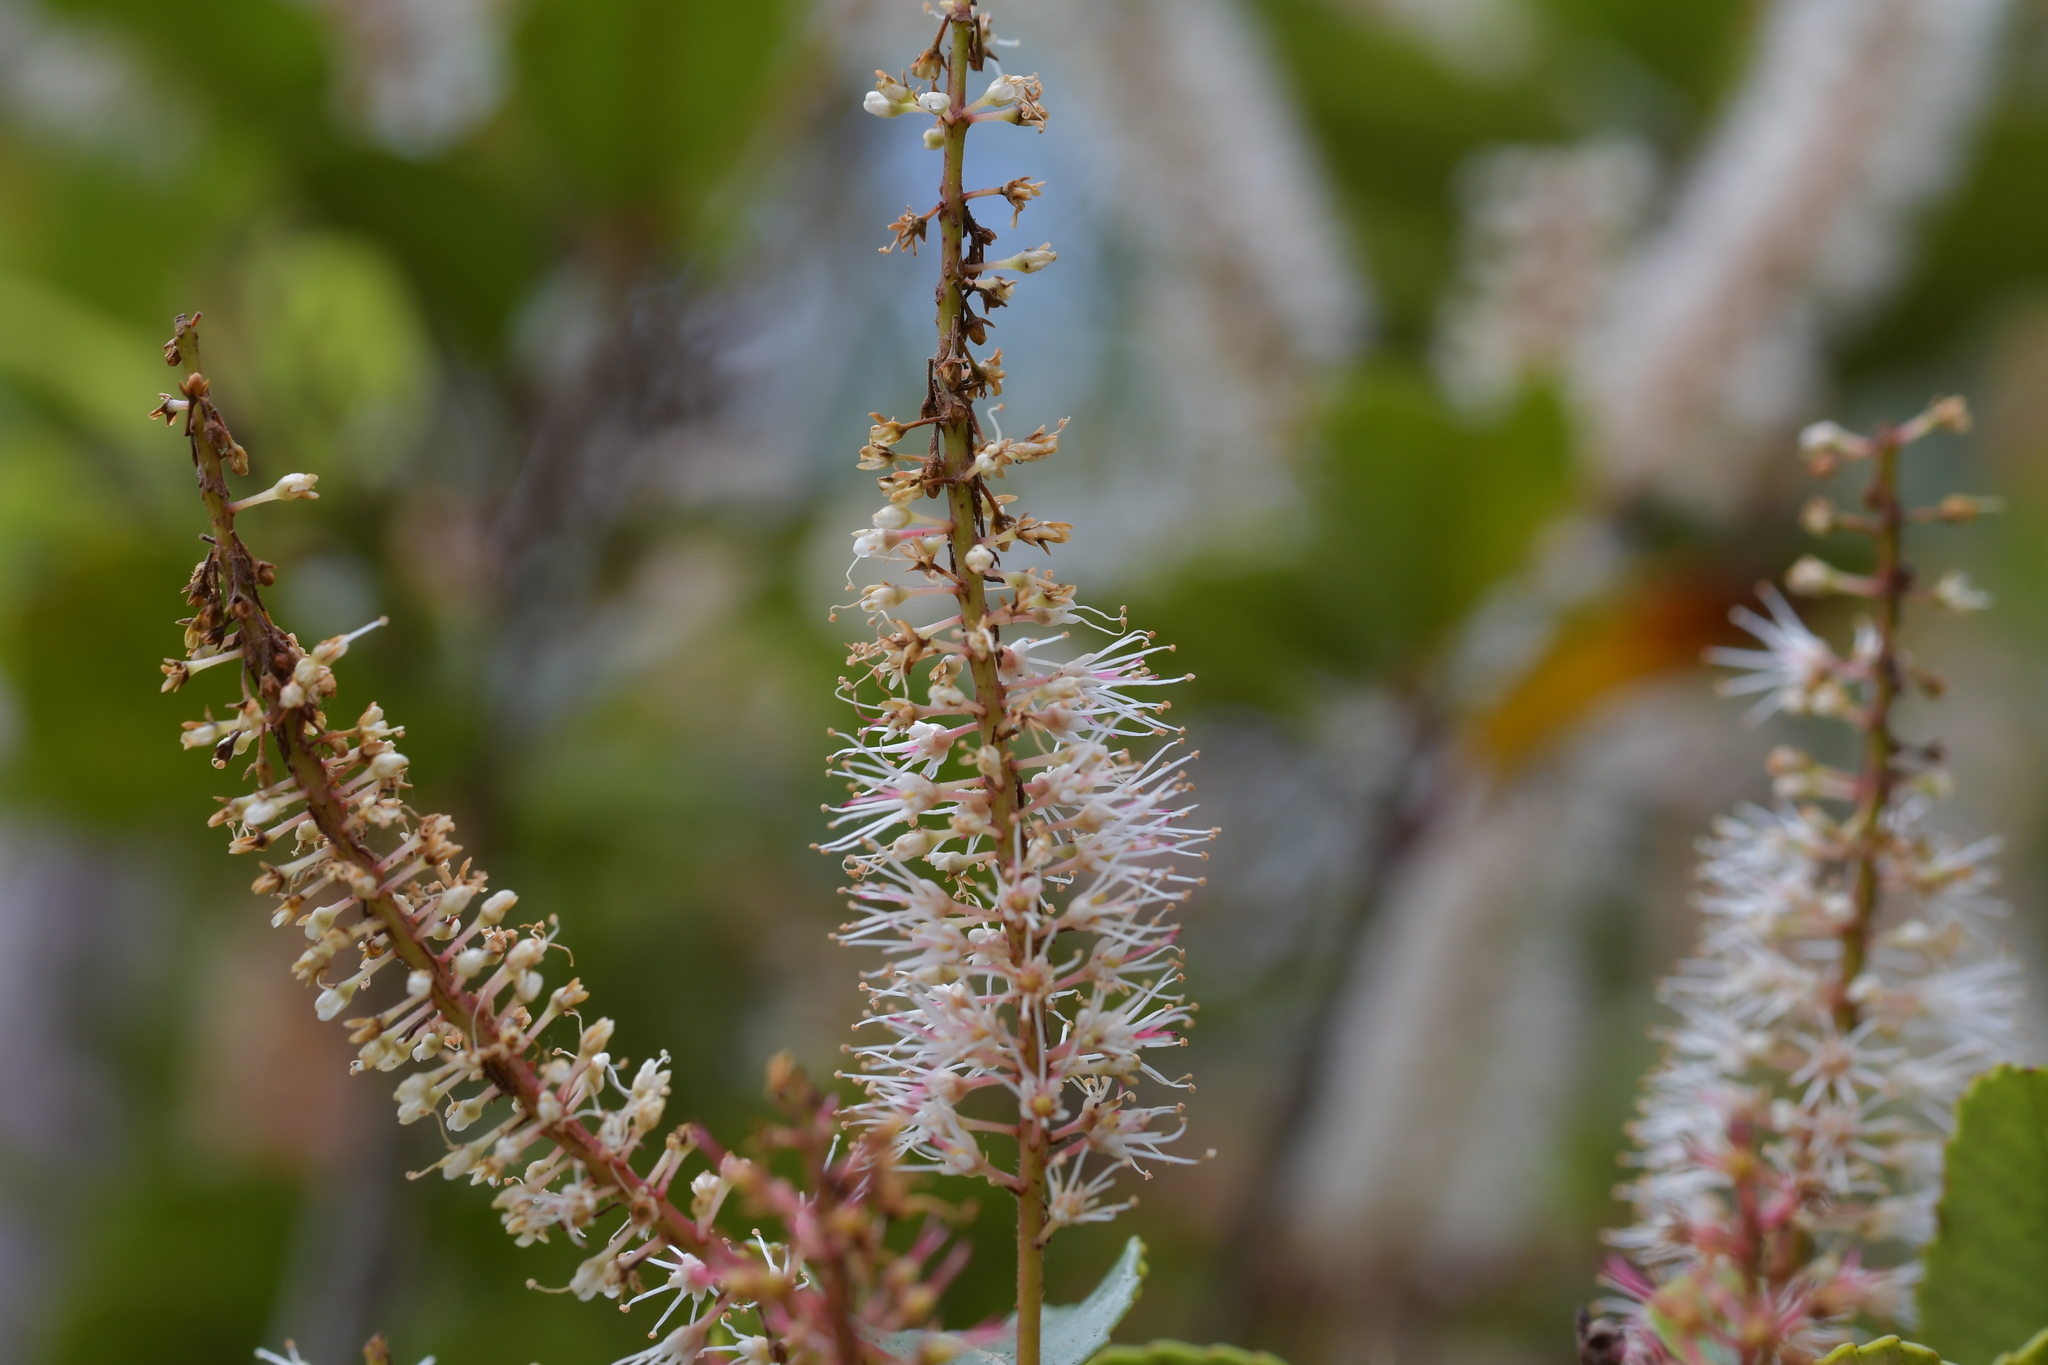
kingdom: Plantae
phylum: Tracheophyta
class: Magnoliopsida
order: Oxalidales
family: Cunoniaceae
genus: Pterophylla
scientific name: Pterophylla racemosa
